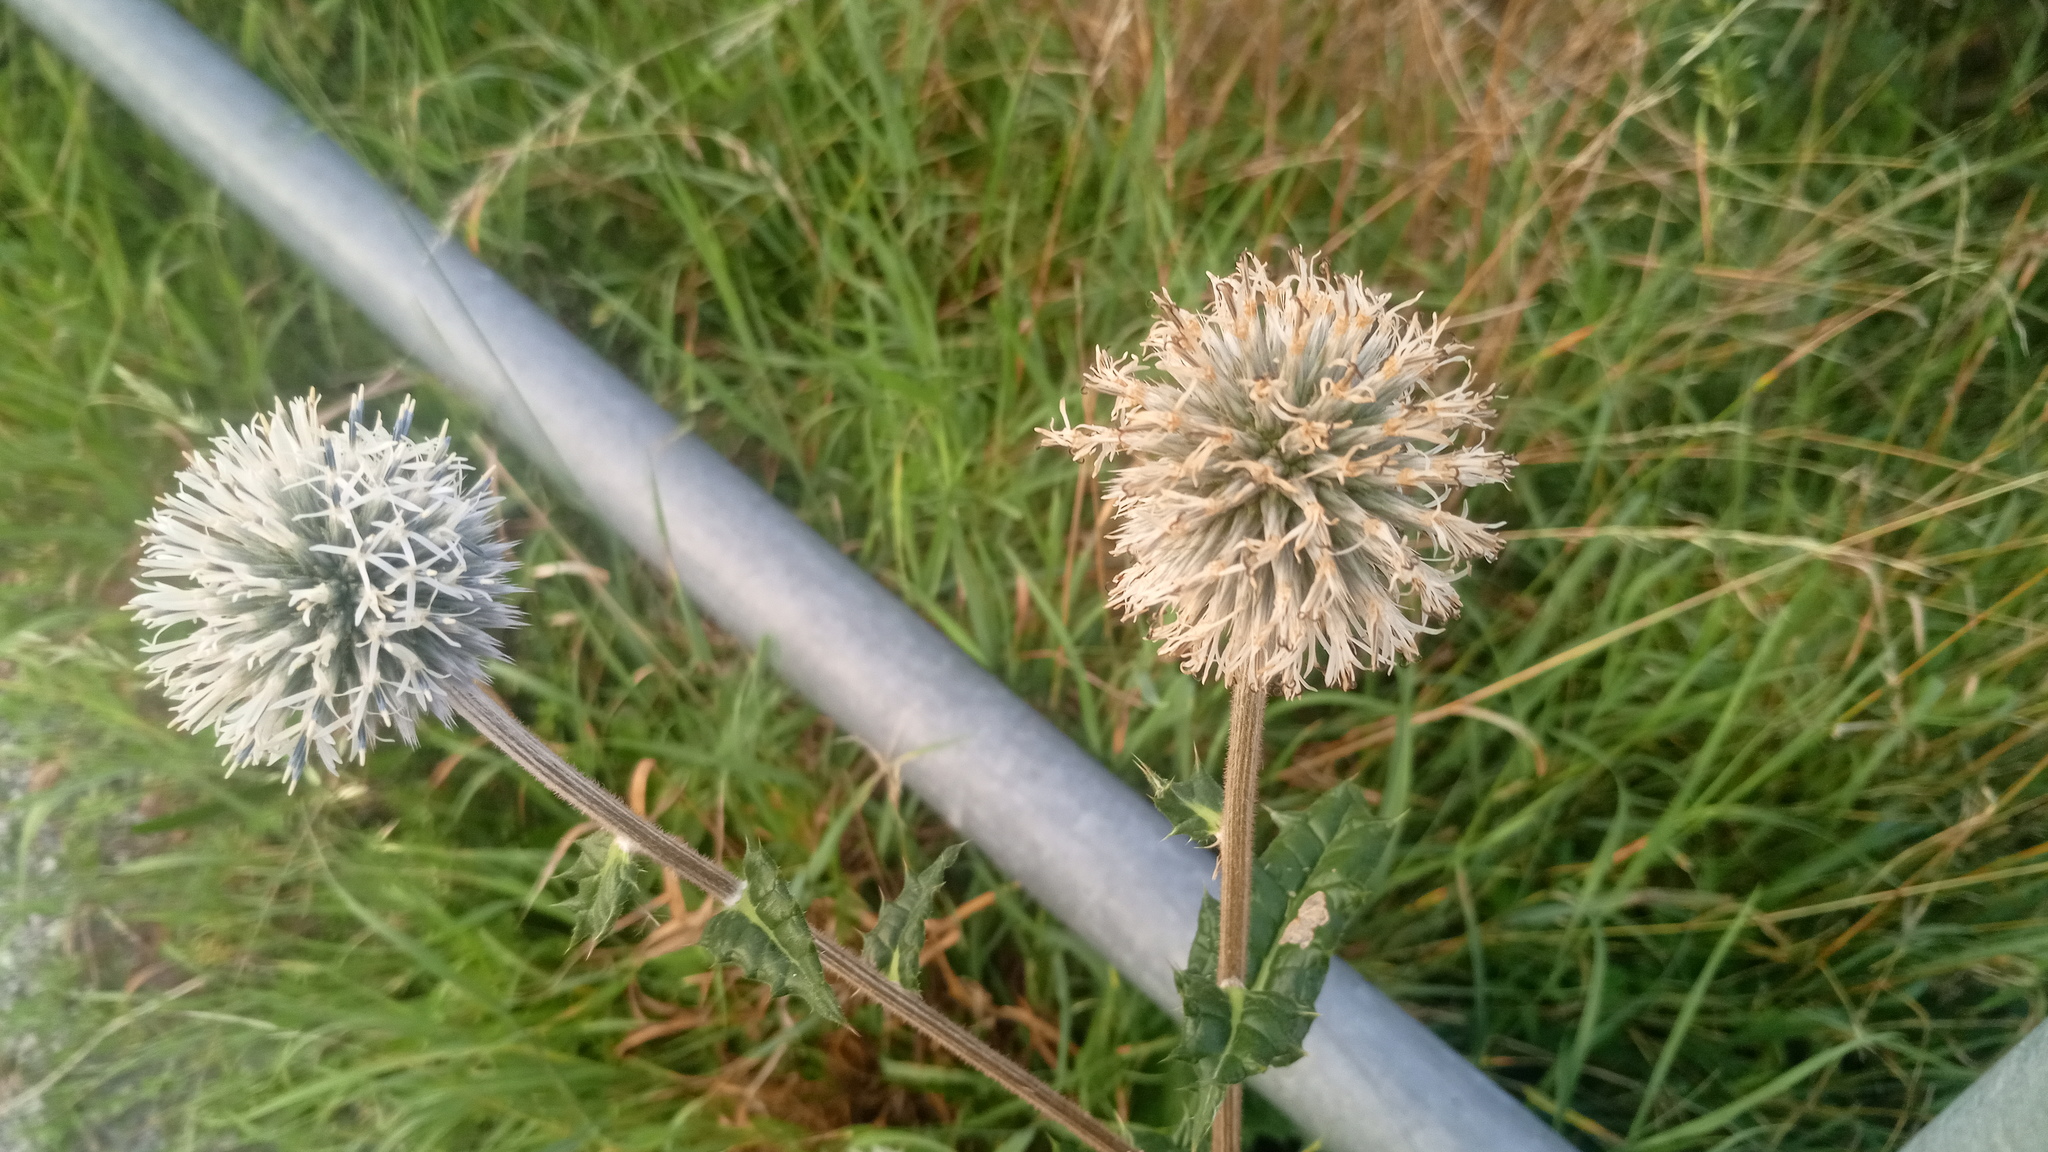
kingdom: Plantae
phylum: Tracheophyta
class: Magnoliopsida
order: Asterales
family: Asteraceae
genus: Echinops
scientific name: Echinops sphaerocephalus
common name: Glandular globe-thistle
